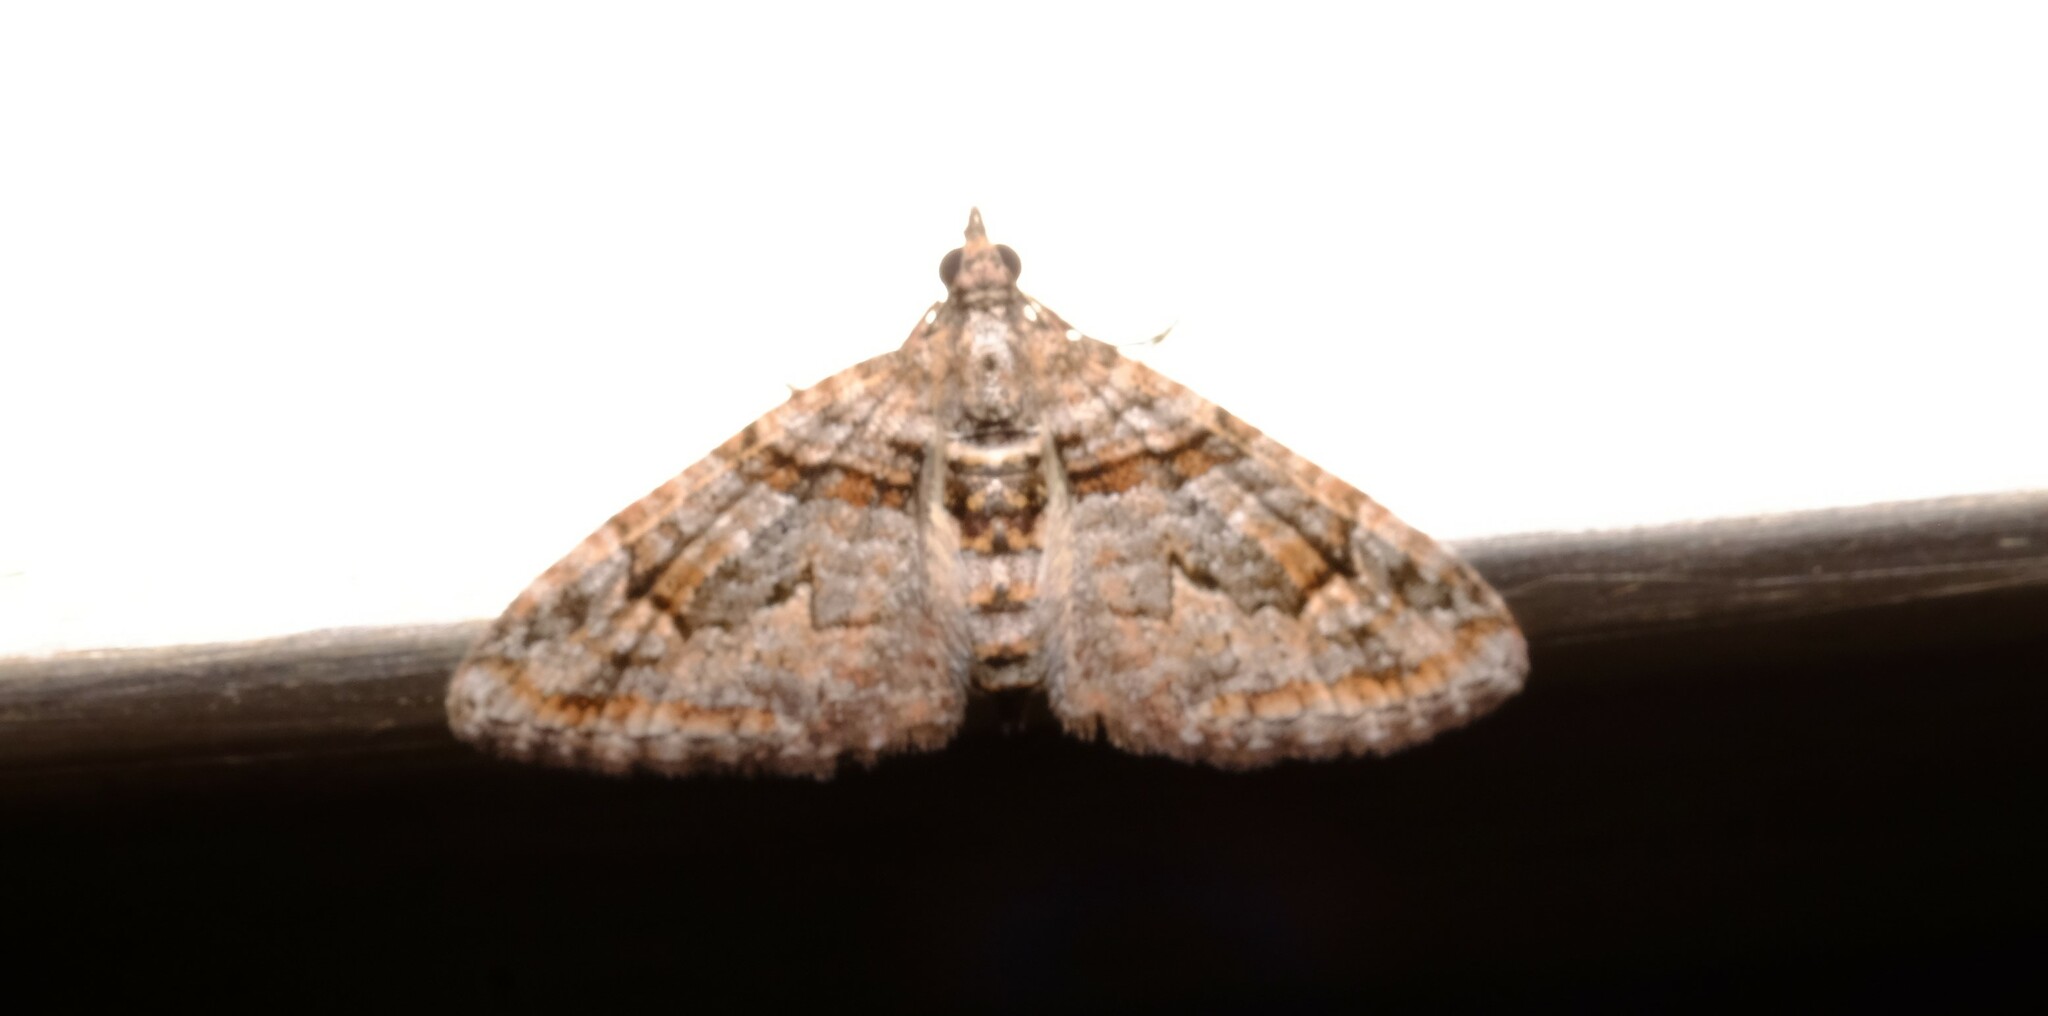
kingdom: Animalia
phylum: Arthropoda
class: Insecta
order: Lepidoptera
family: Geometridae
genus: Phrissogonus
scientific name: Phrissogonus laticostata
